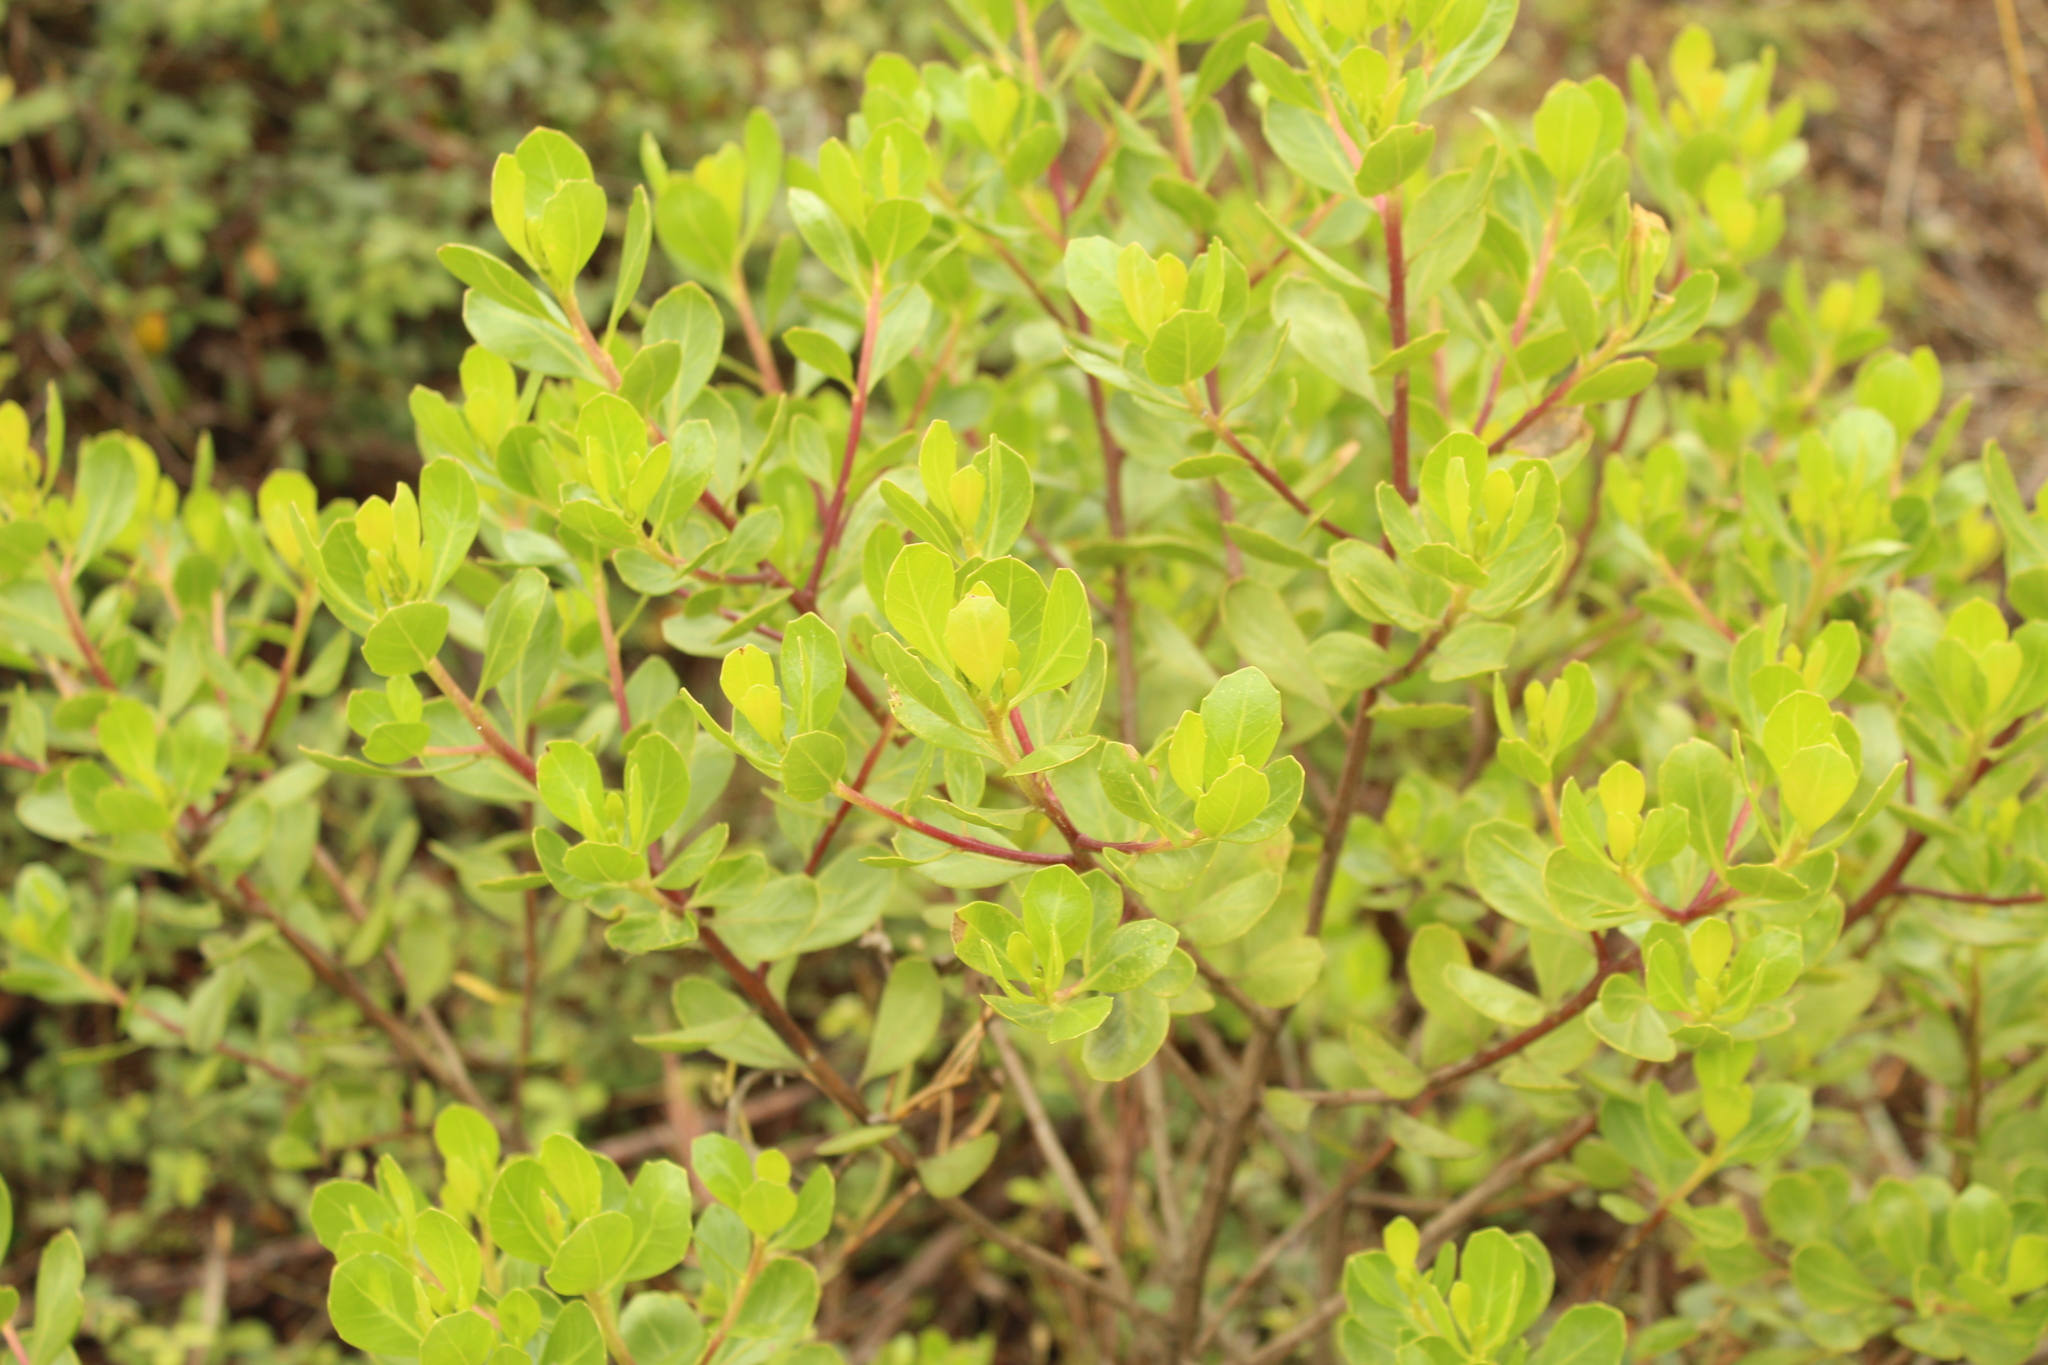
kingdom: Plantae
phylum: Tracheophyta
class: Magnoliopsida
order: Asterales
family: Asteraceae
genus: Baccharis
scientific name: Baccharis macrantha
